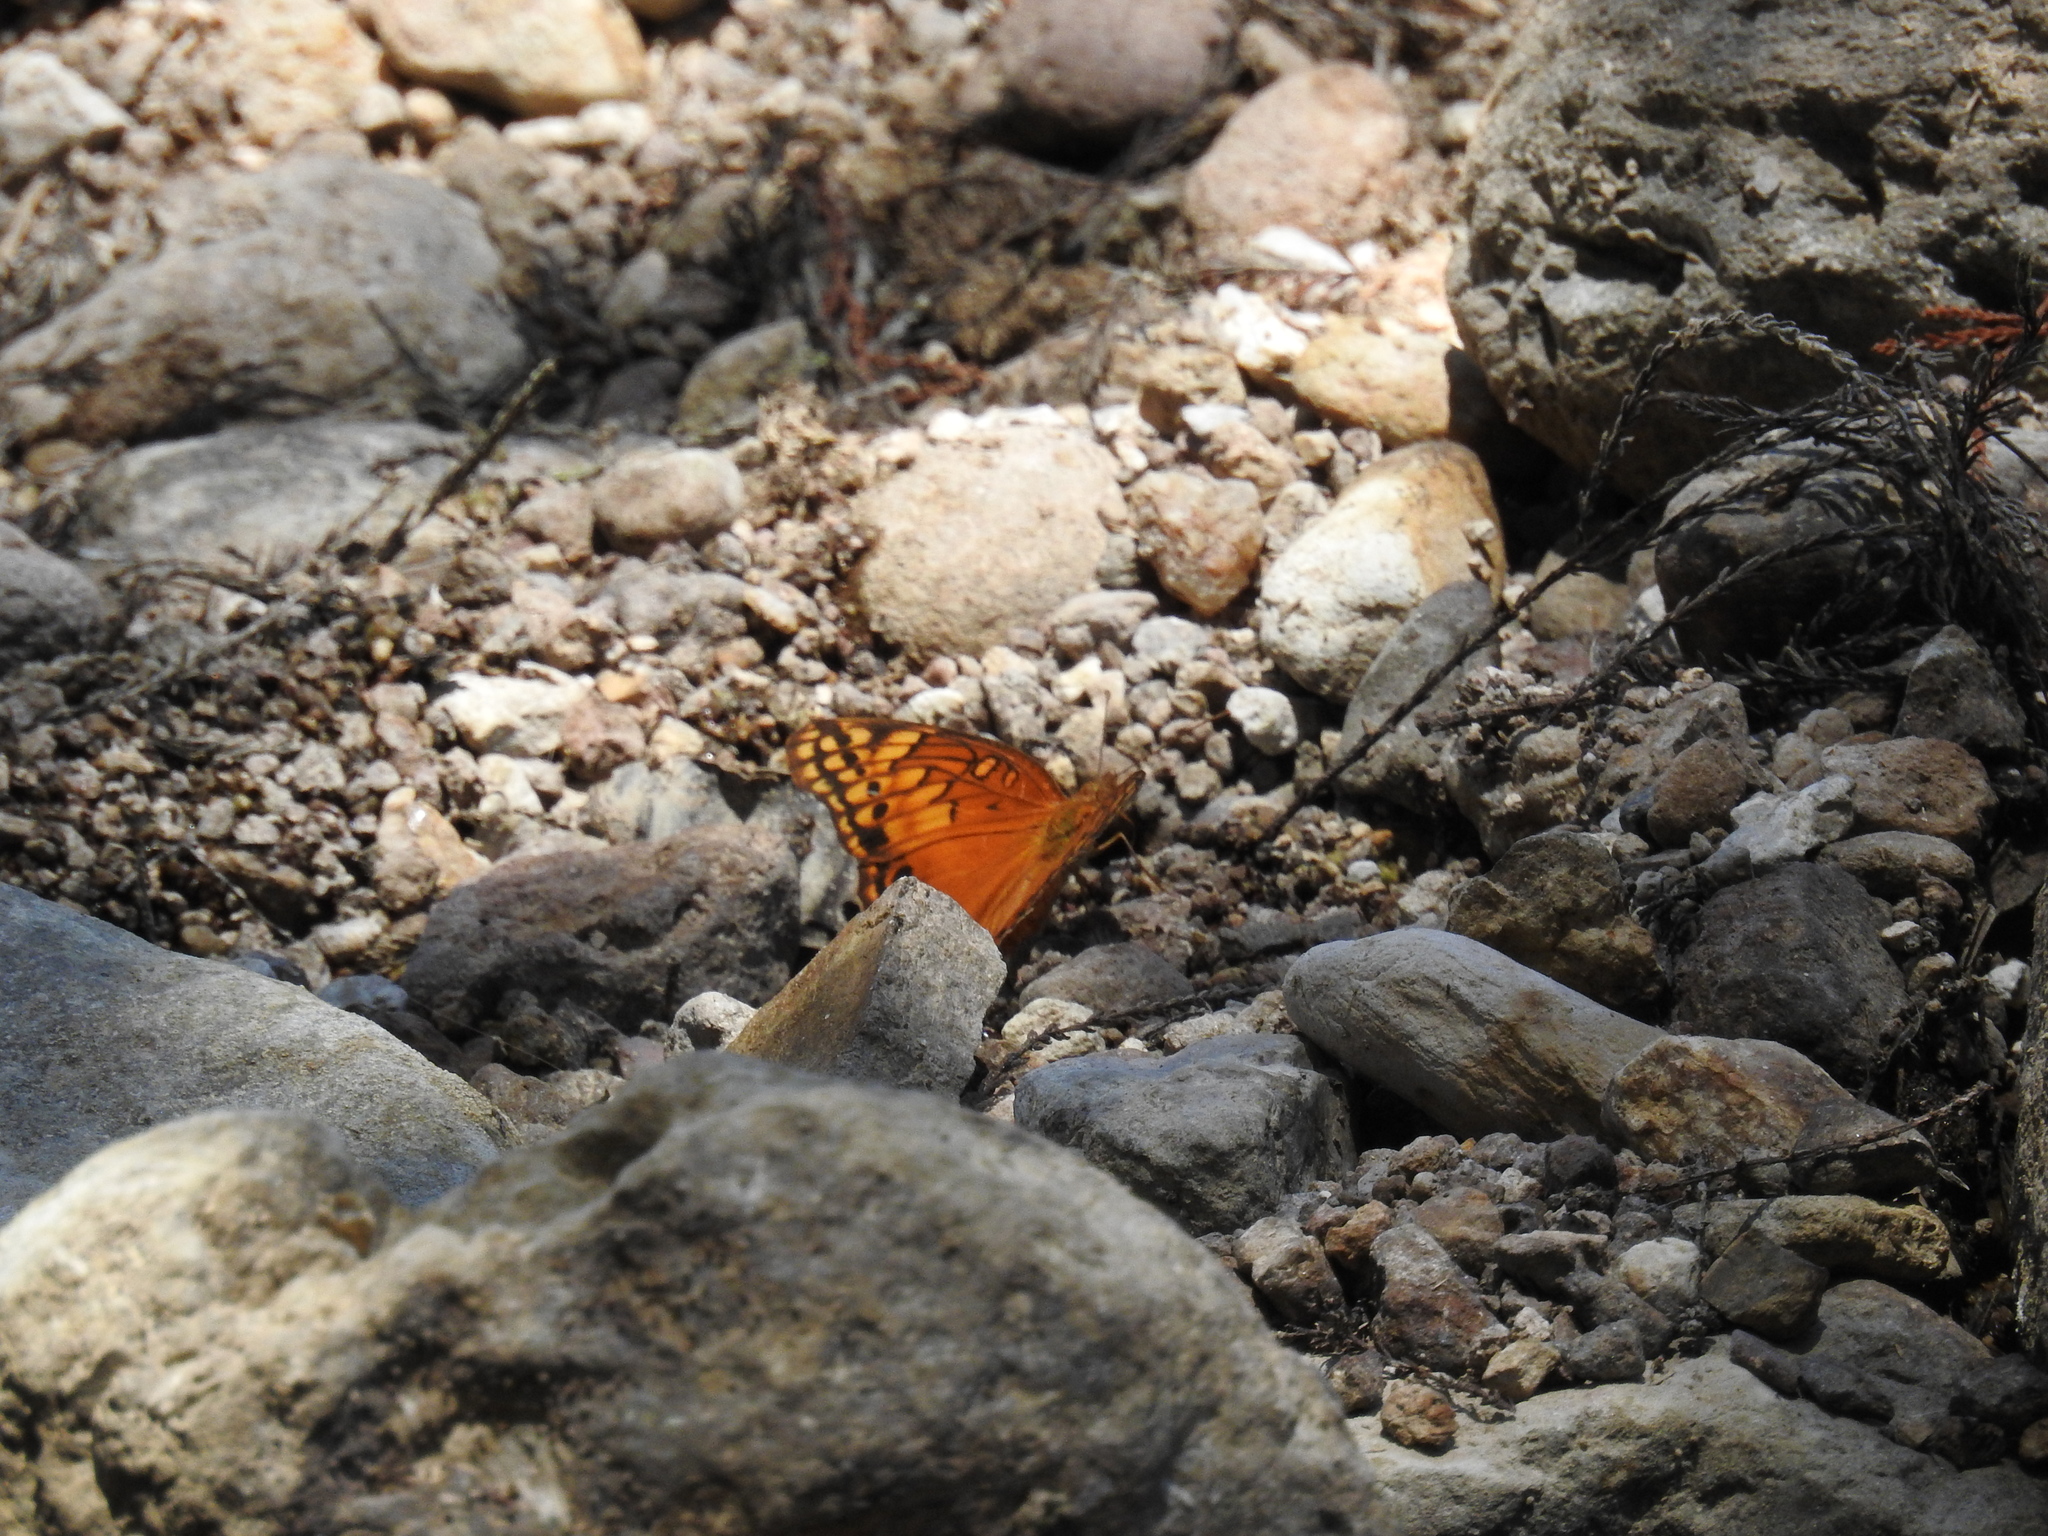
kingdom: Animalia
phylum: Arthropoda
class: Insecta
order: Lepidoptera
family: Nymphalidae
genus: Euptoieta
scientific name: Euptoieta hegesia
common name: Mexican fritillary
